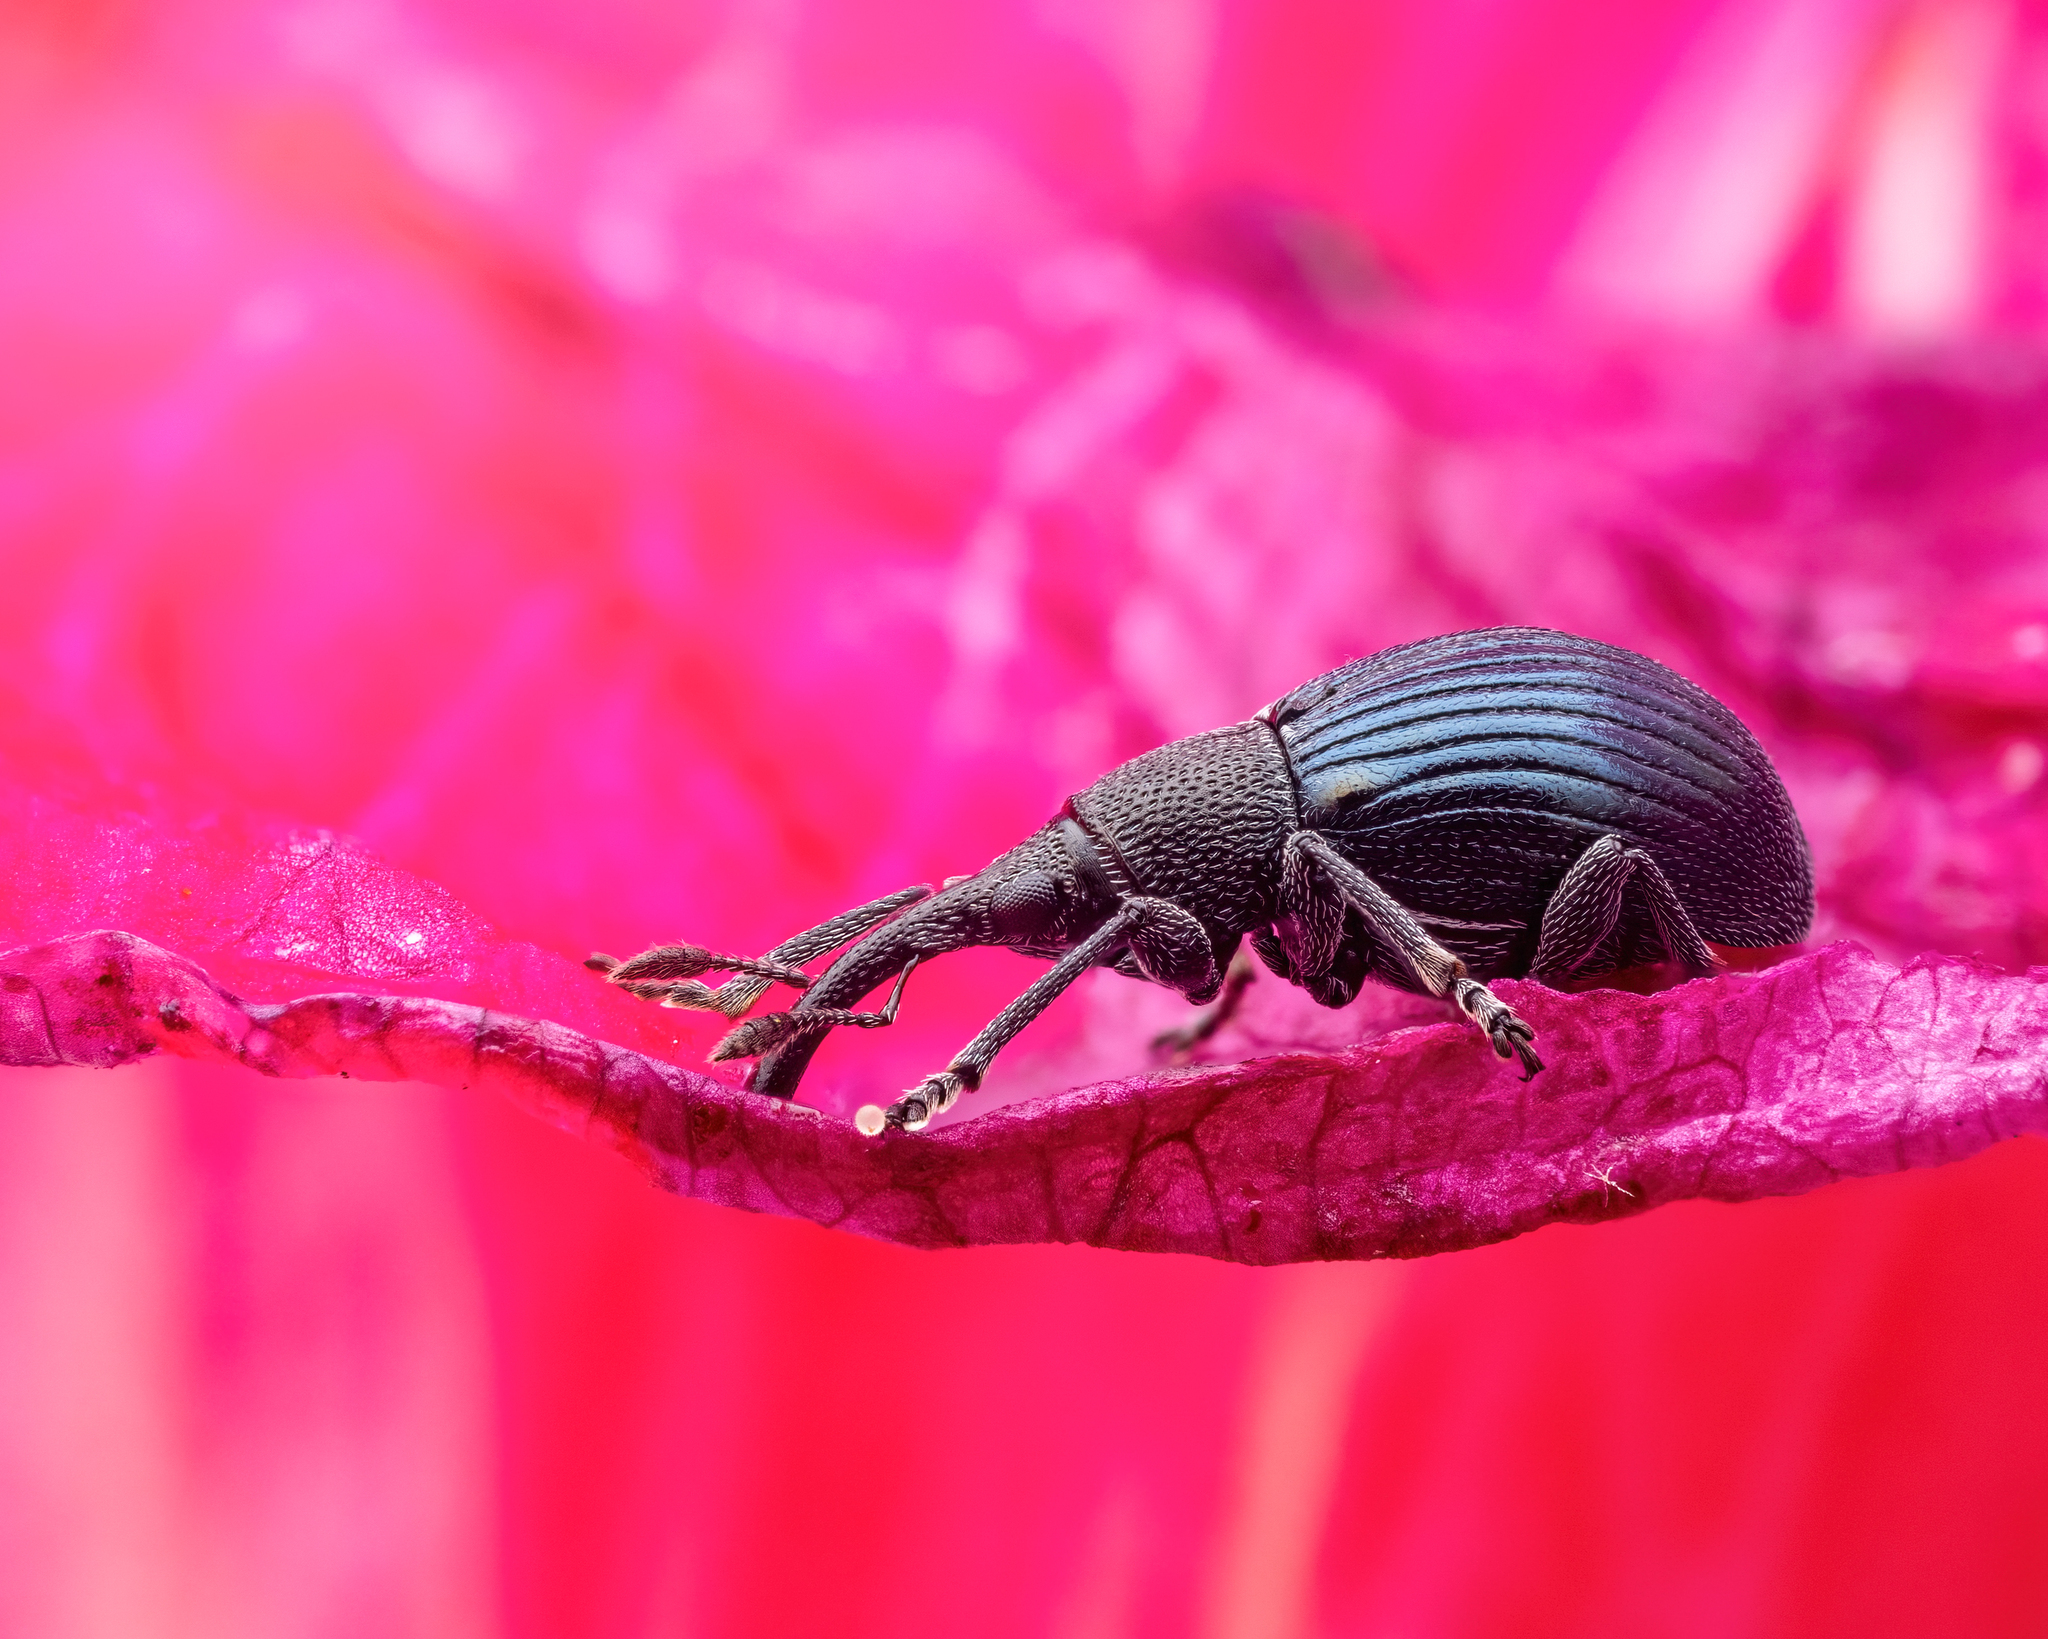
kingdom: Animalia
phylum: Arthropoda
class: Insecta
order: Coleoptera
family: Apionidae
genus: Aspidapion
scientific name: Aspidapion radiolus
